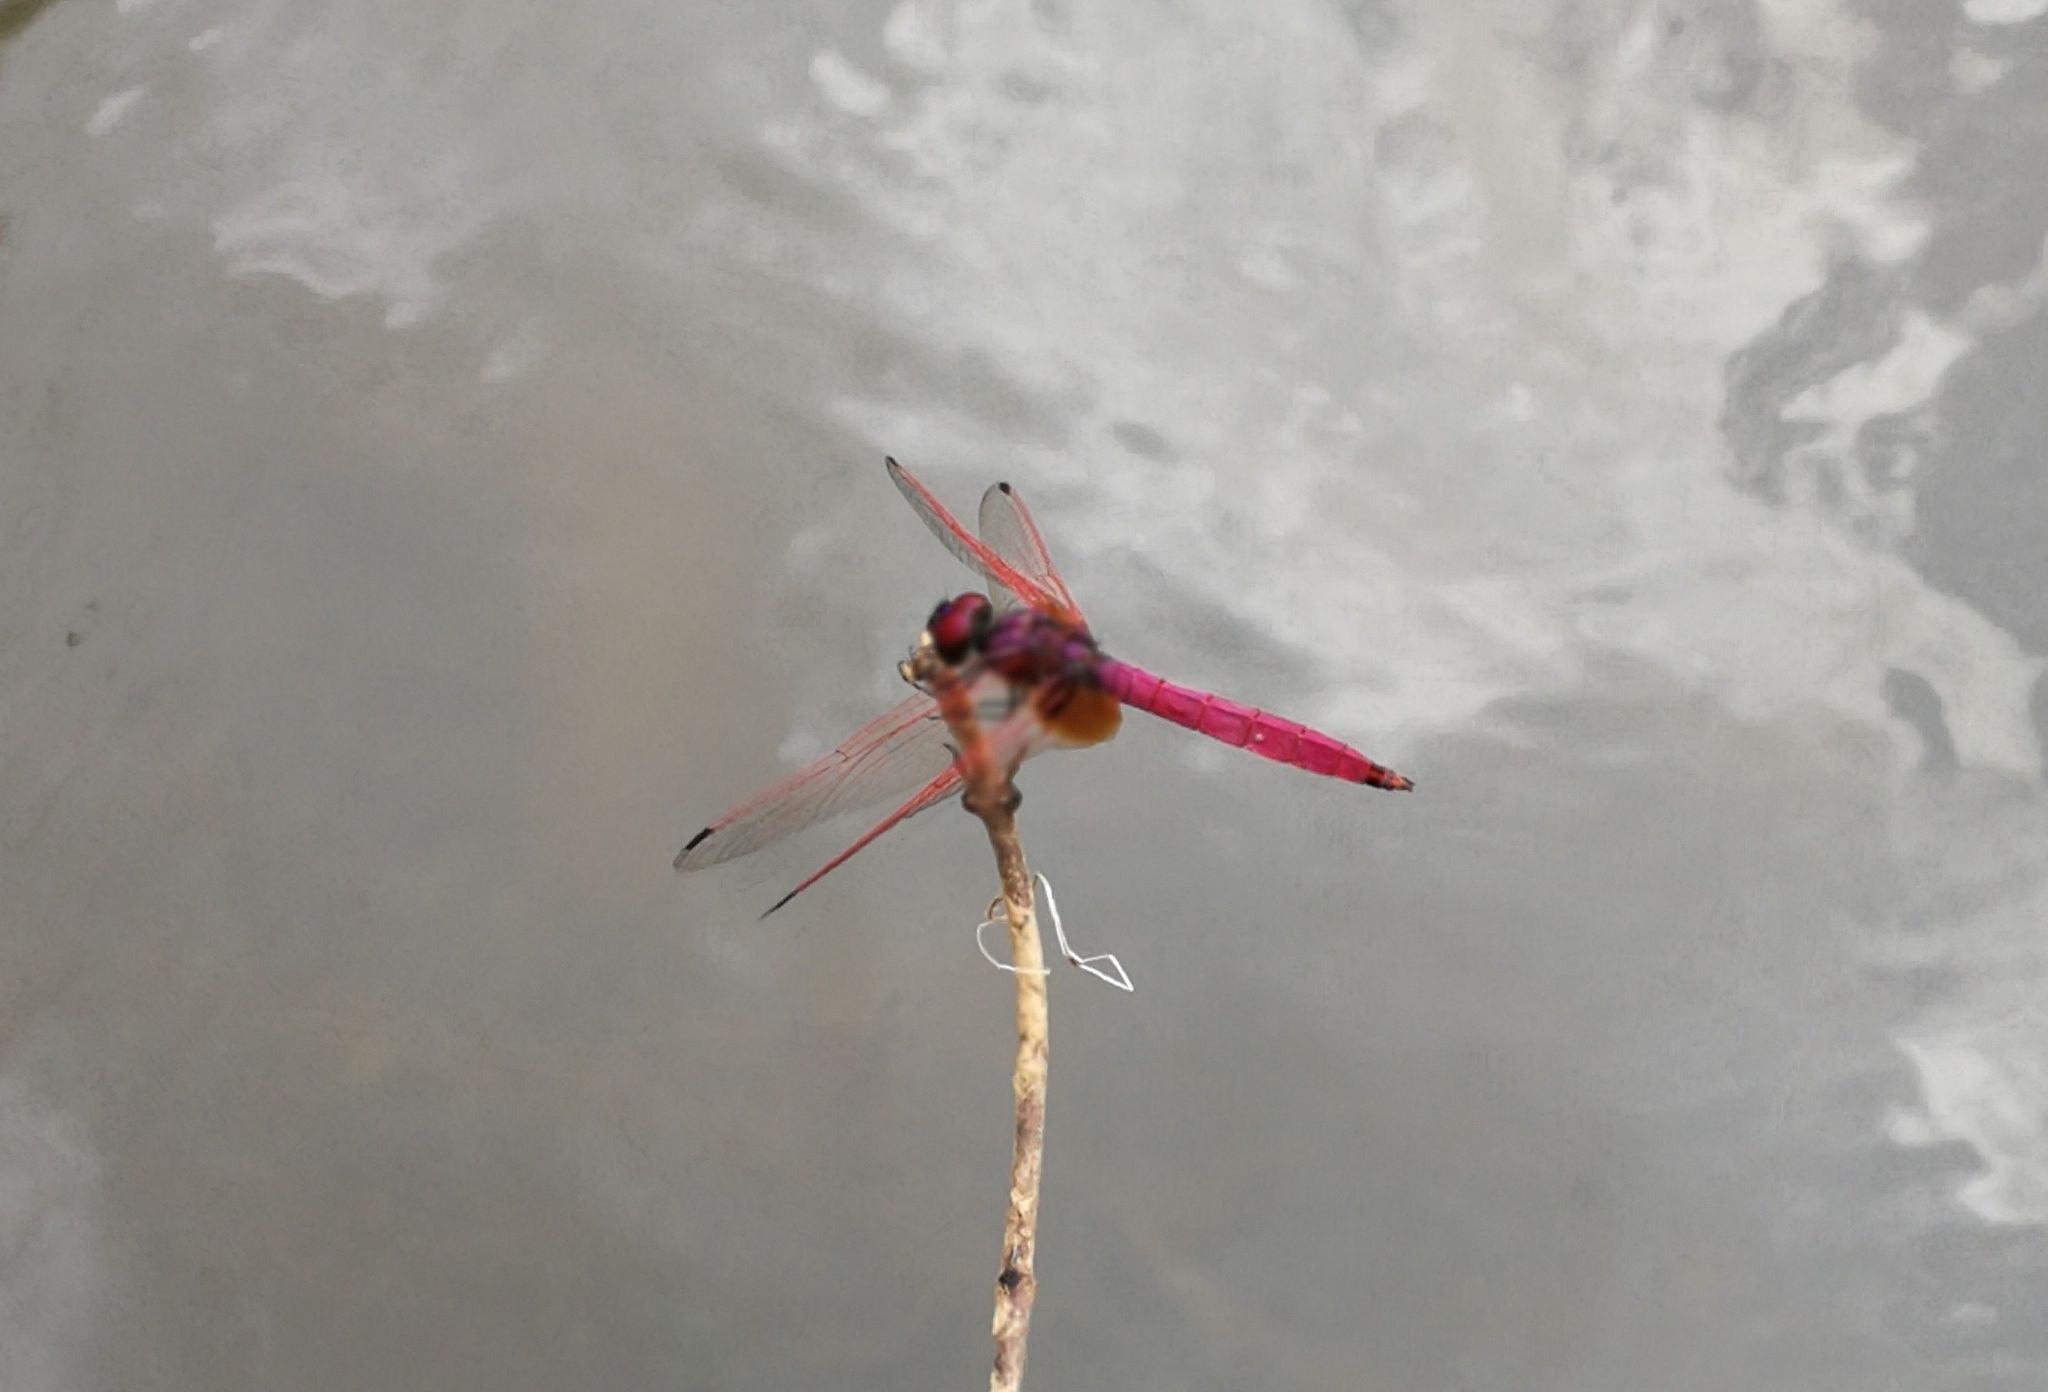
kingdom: Animalia
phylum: Arthropoda
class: Insecta
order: Odonata
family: Libellulidae
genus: Trithemis
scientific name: Trithemis aurora
